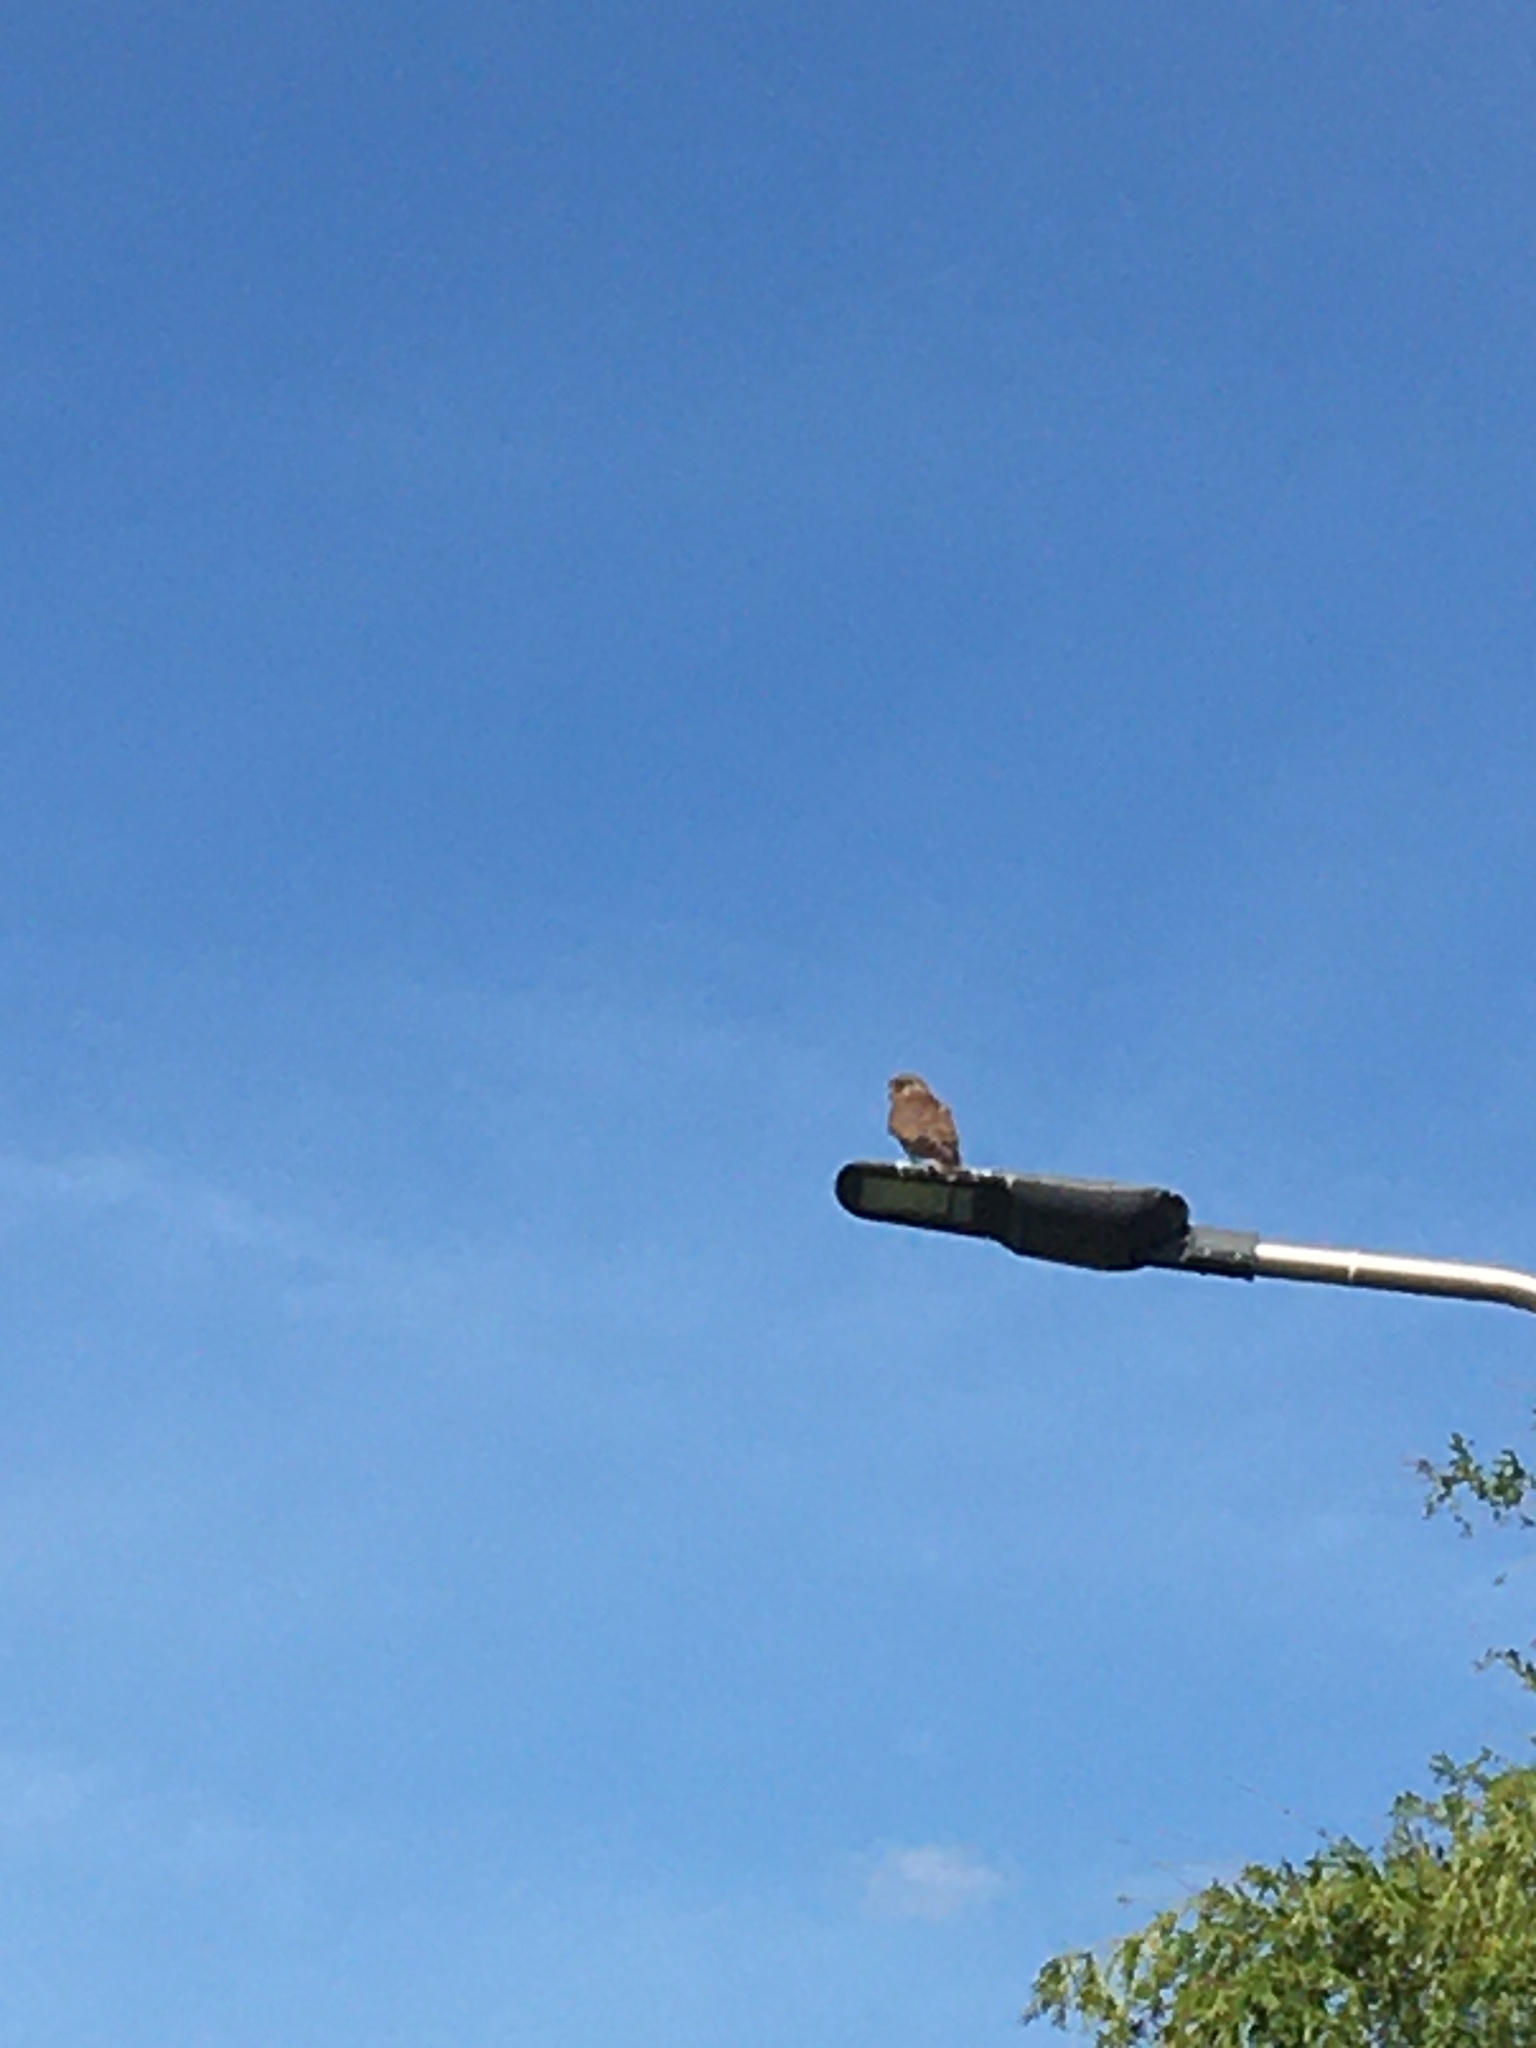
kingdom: Animalia
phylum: Chordata
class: Aves
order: Falconiformes
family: Falconidae
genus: Falco
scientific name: Falco tinnunculus
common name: Common kestrel
